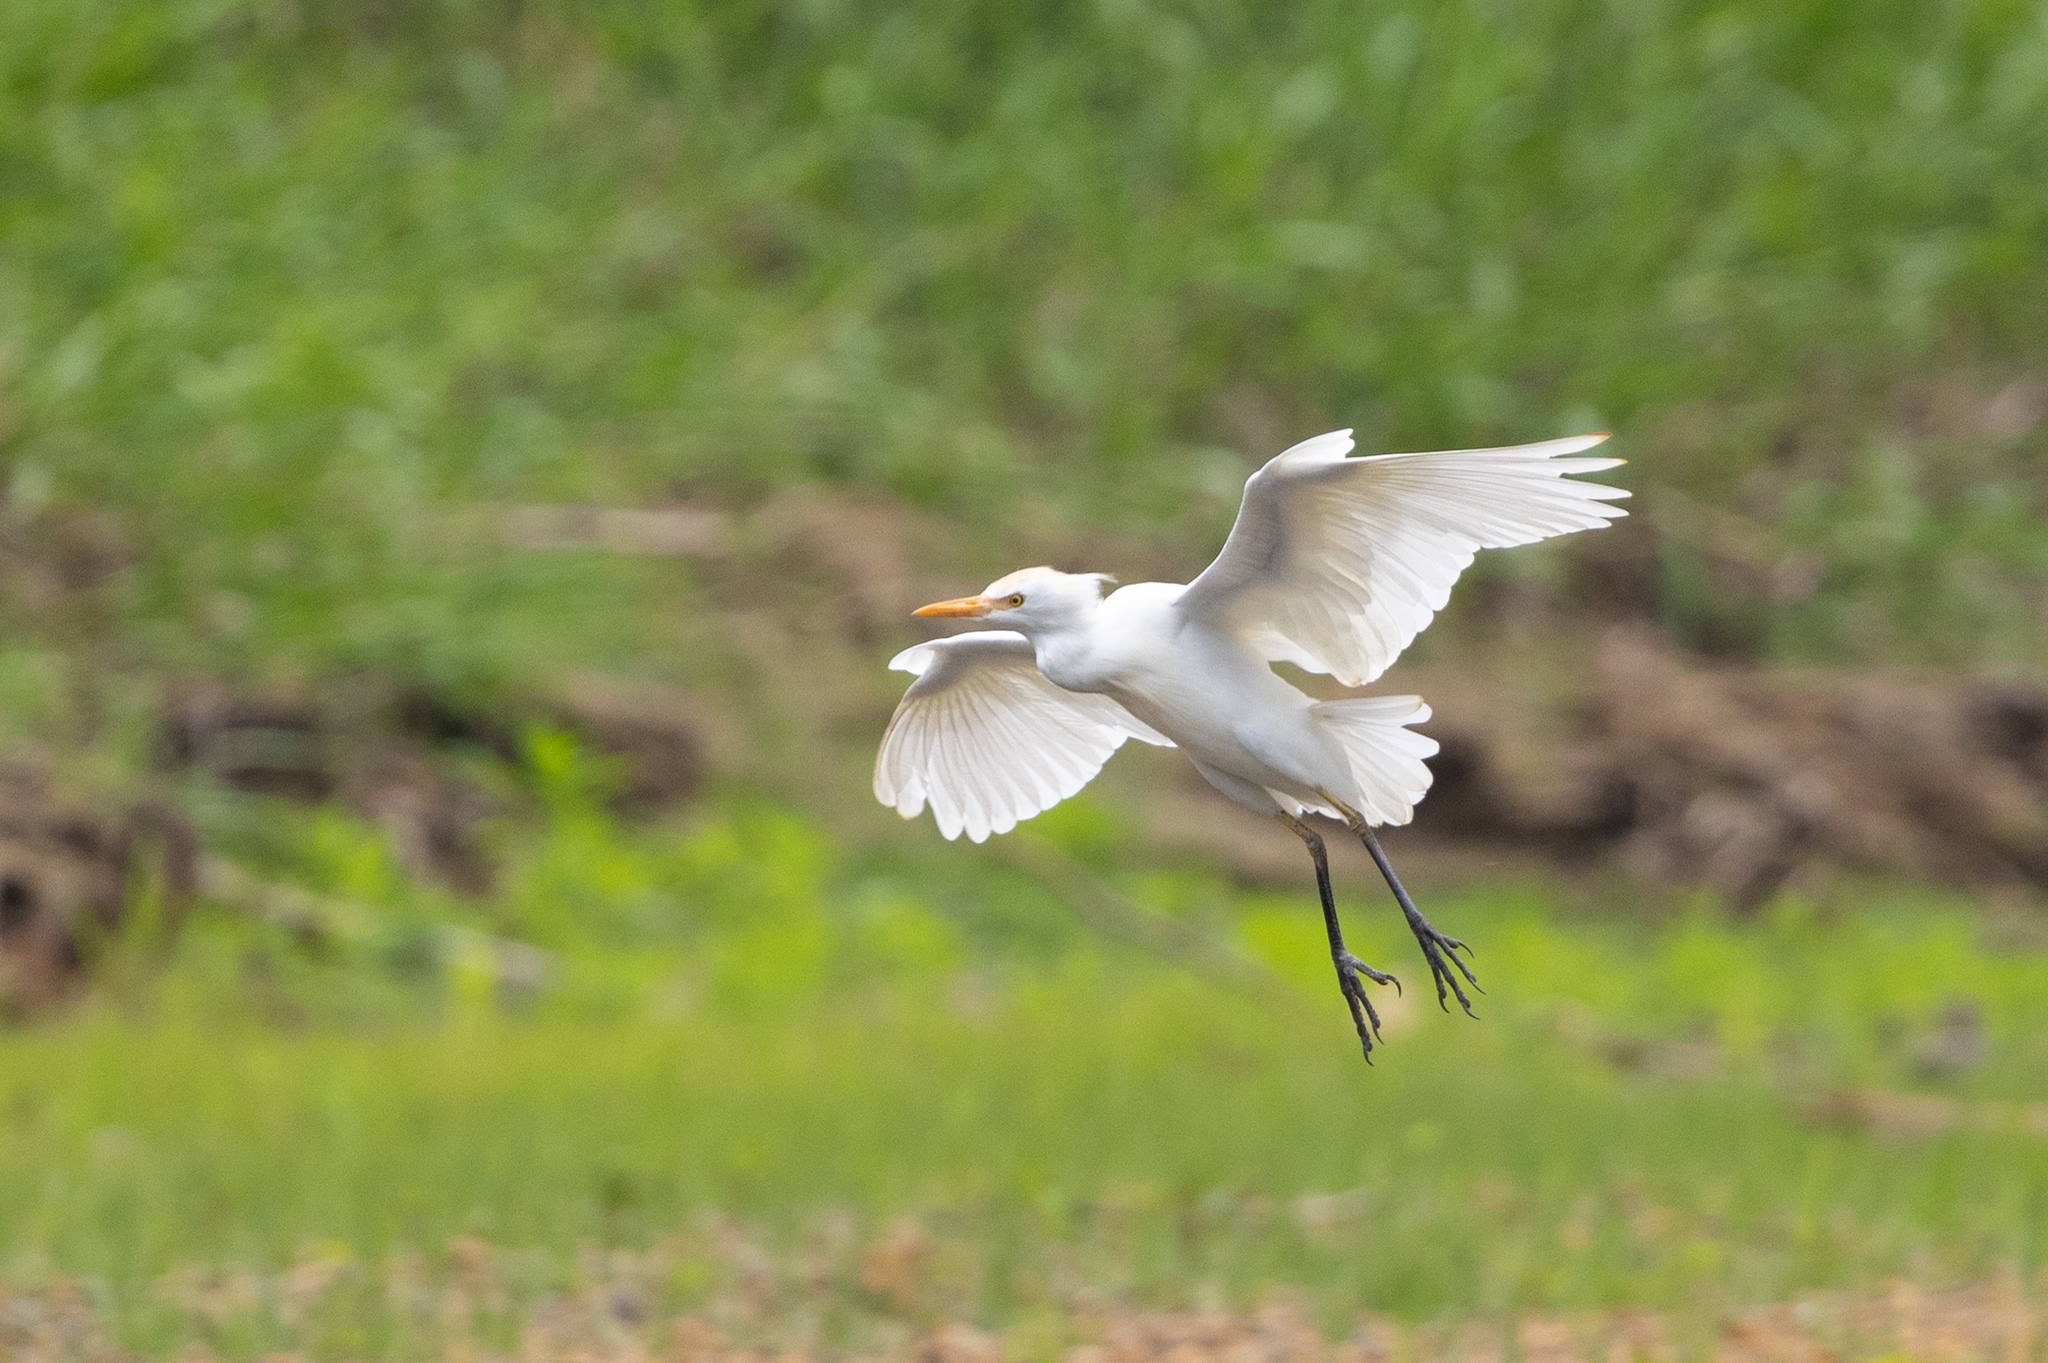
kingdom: Animalia
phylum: Chordata
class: Aves
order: Pelecaniformes
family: Ardeidae
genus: Bubulcus
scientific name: Bubulcus ibis
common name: Cattle egret
